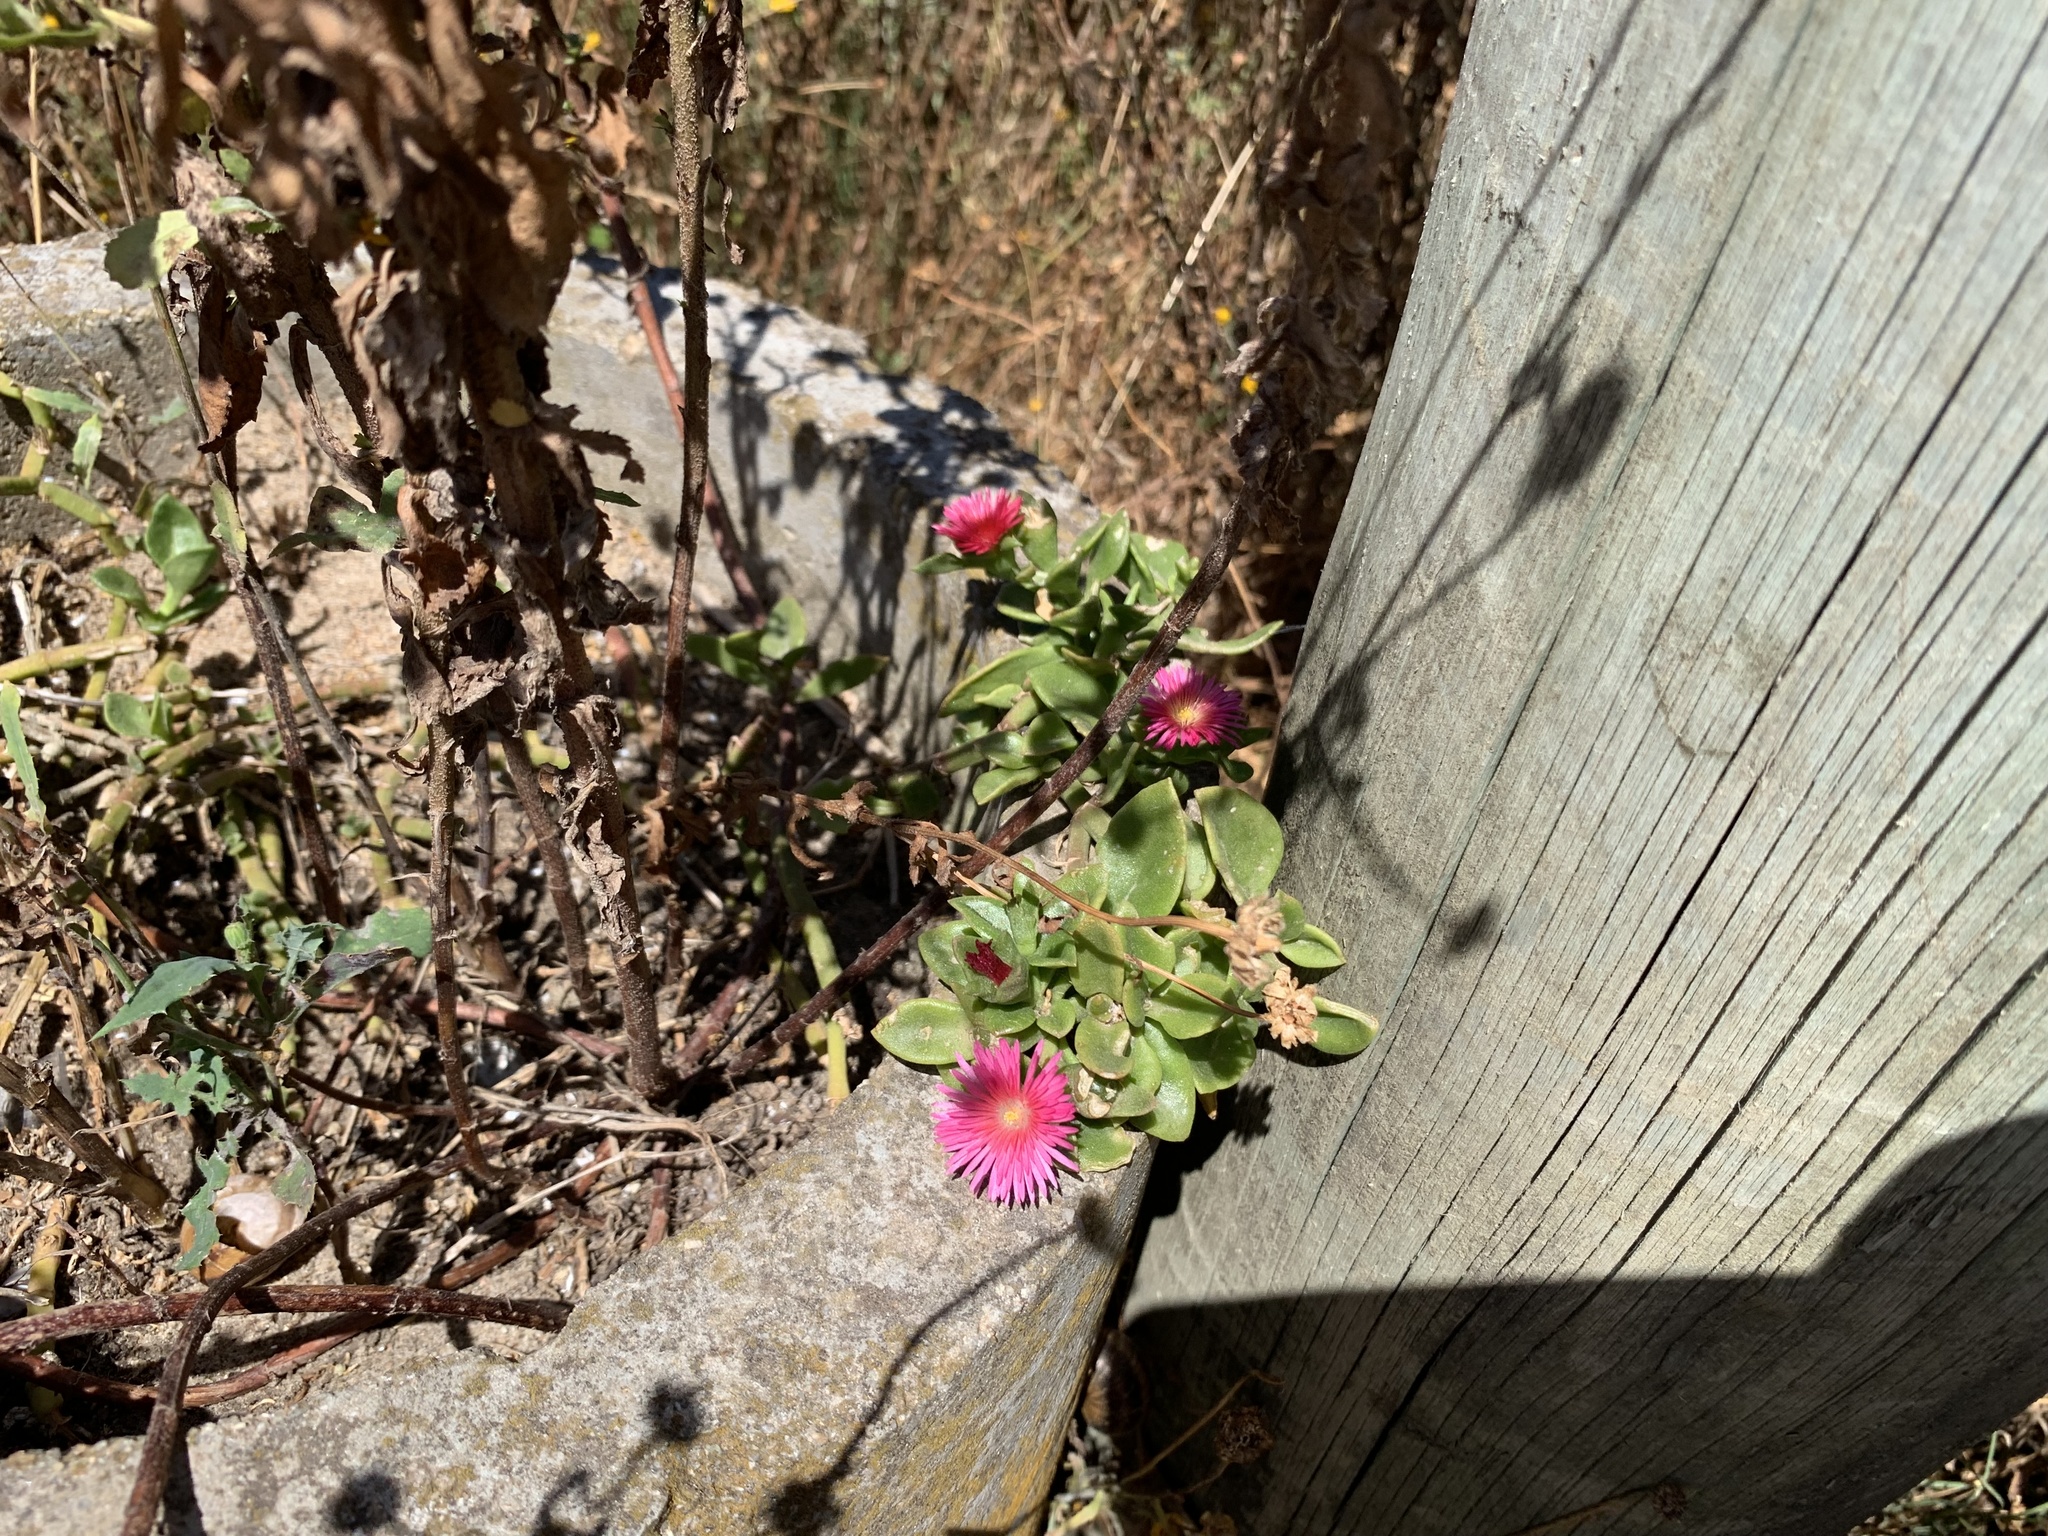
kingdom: Plantae
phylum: Tracheophyta
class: Magnoliopsida
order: Caryophyllales
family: Aizoaceae
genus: Mesembryanthemum
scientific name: Mesembryanthemum cordifolium
